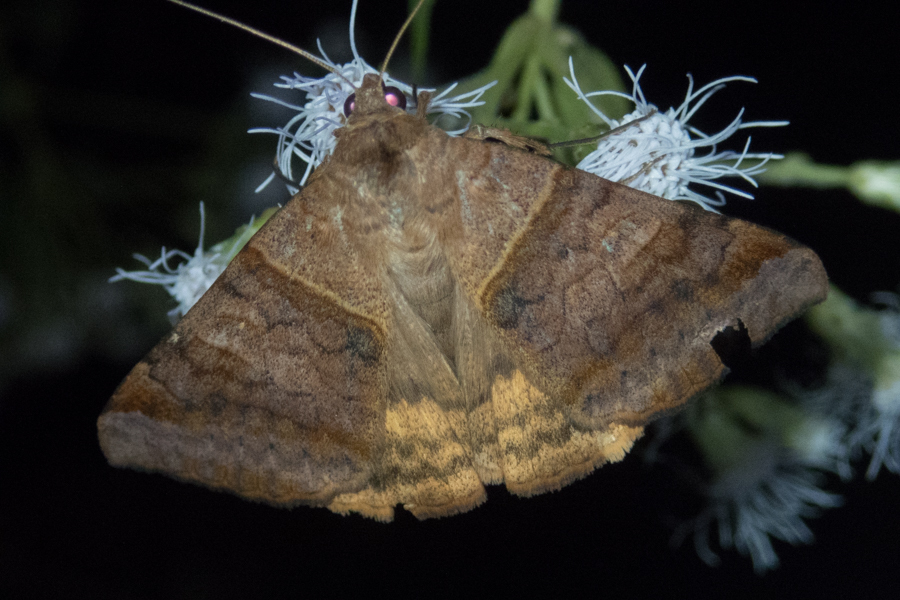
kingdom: Animalia
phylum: Arthropoda
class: Insecta
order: Lepidoptera
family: Erebidae
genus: Mocis
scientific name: Mocis undata
